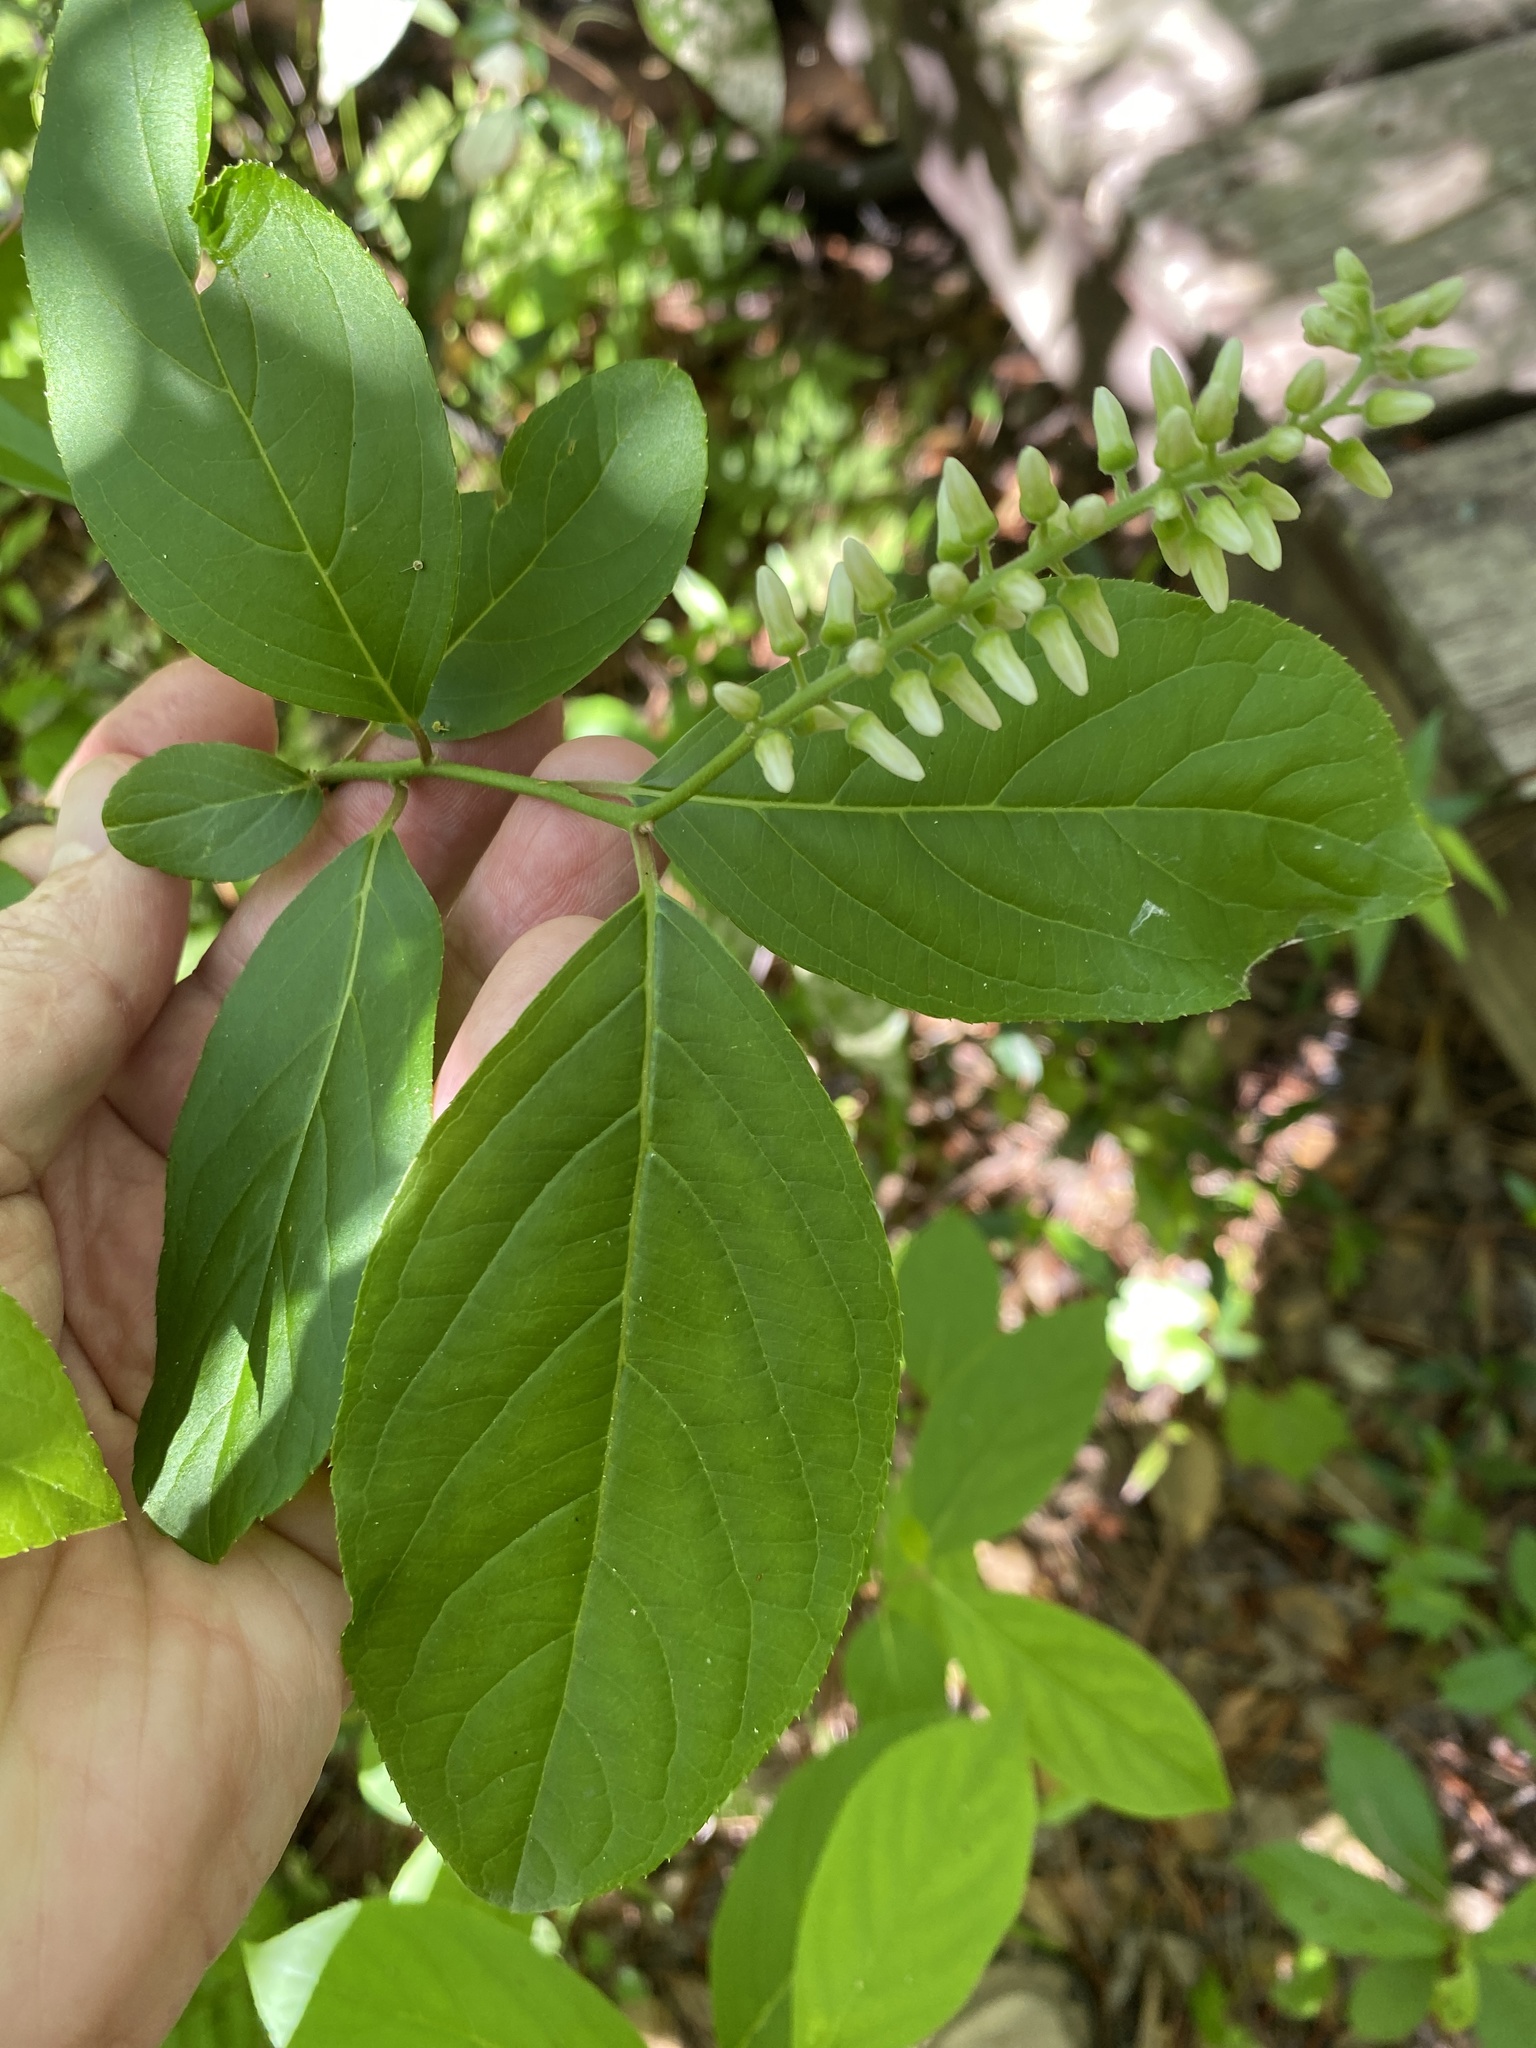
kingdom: Plantae
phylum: Tracheophyta
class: Magnoliopsida
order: Saxifragales
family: Iteaceae
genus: Itea
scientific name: Itea virginica
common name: Sweetspire
